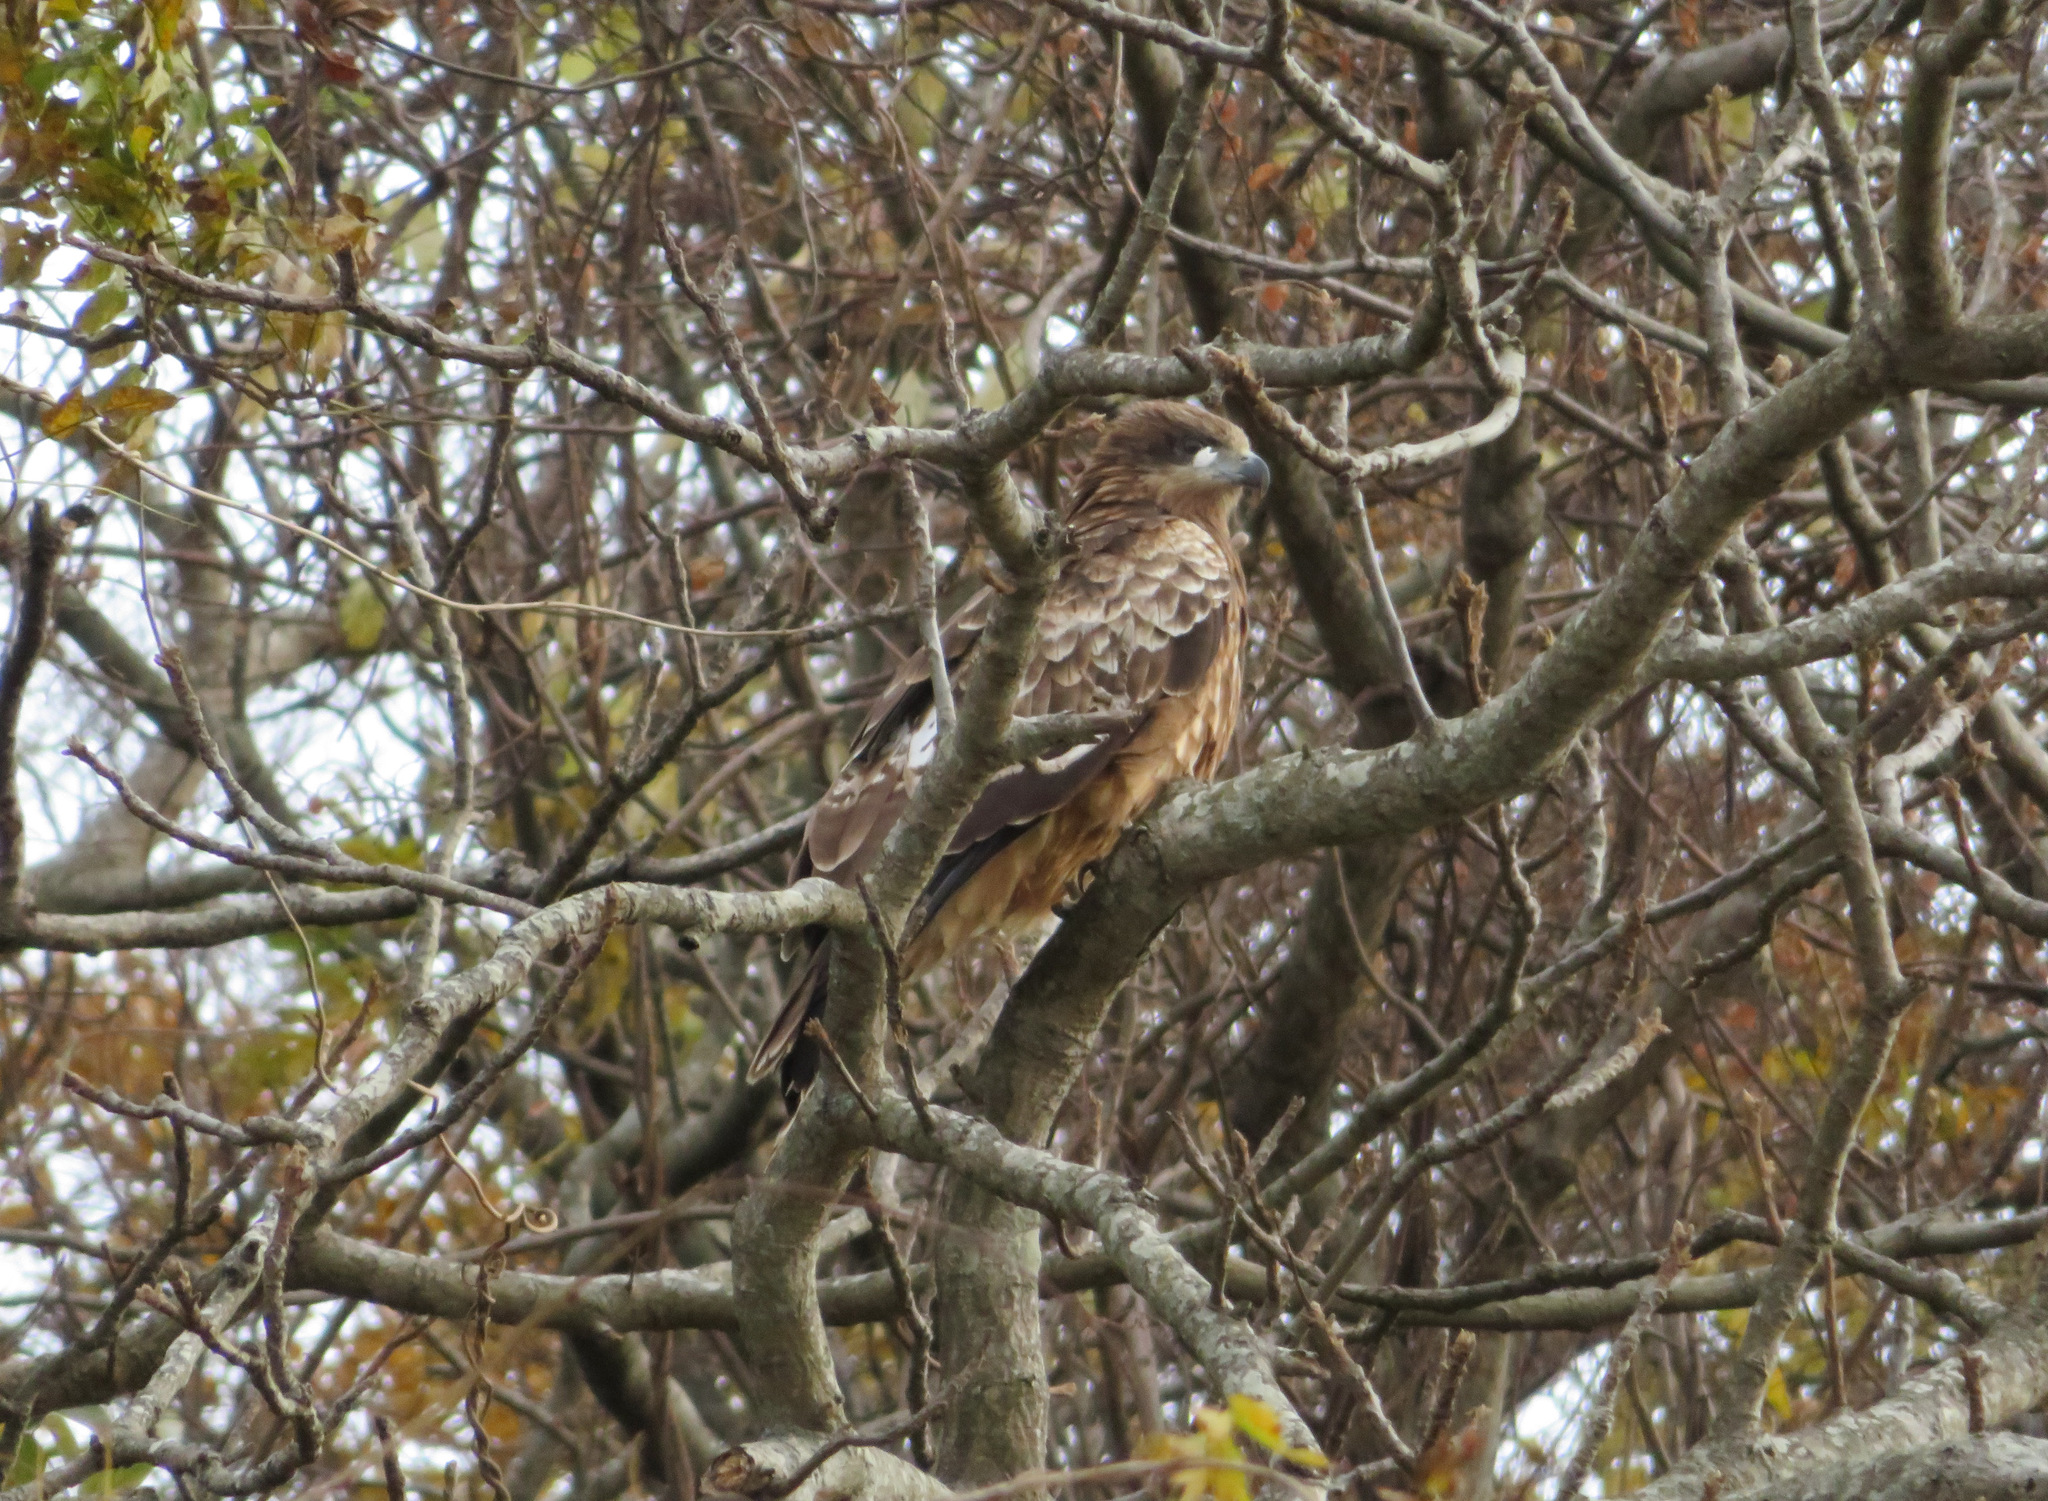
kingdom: Animalia
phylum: Chordata
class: Aves
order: Accipitriformes
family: Accipitridae
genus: Milvus
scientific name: Milvus migrans
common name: Black kite
